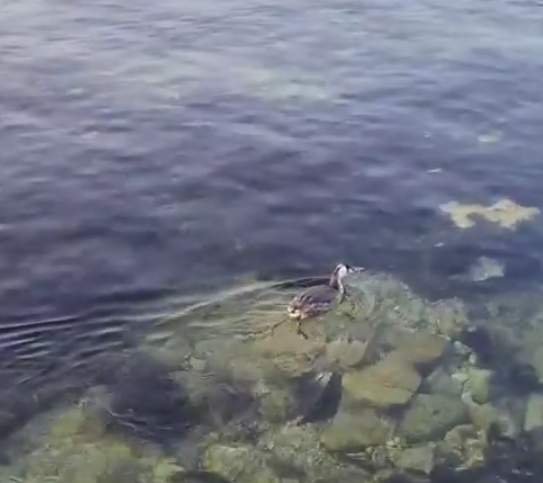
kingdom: Animalia
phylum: Chordata
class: Aves
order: Podicipediformes
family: Podicipedidae
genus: Podiceps
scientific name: Podiceps cristatus
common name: Great crested grebe
